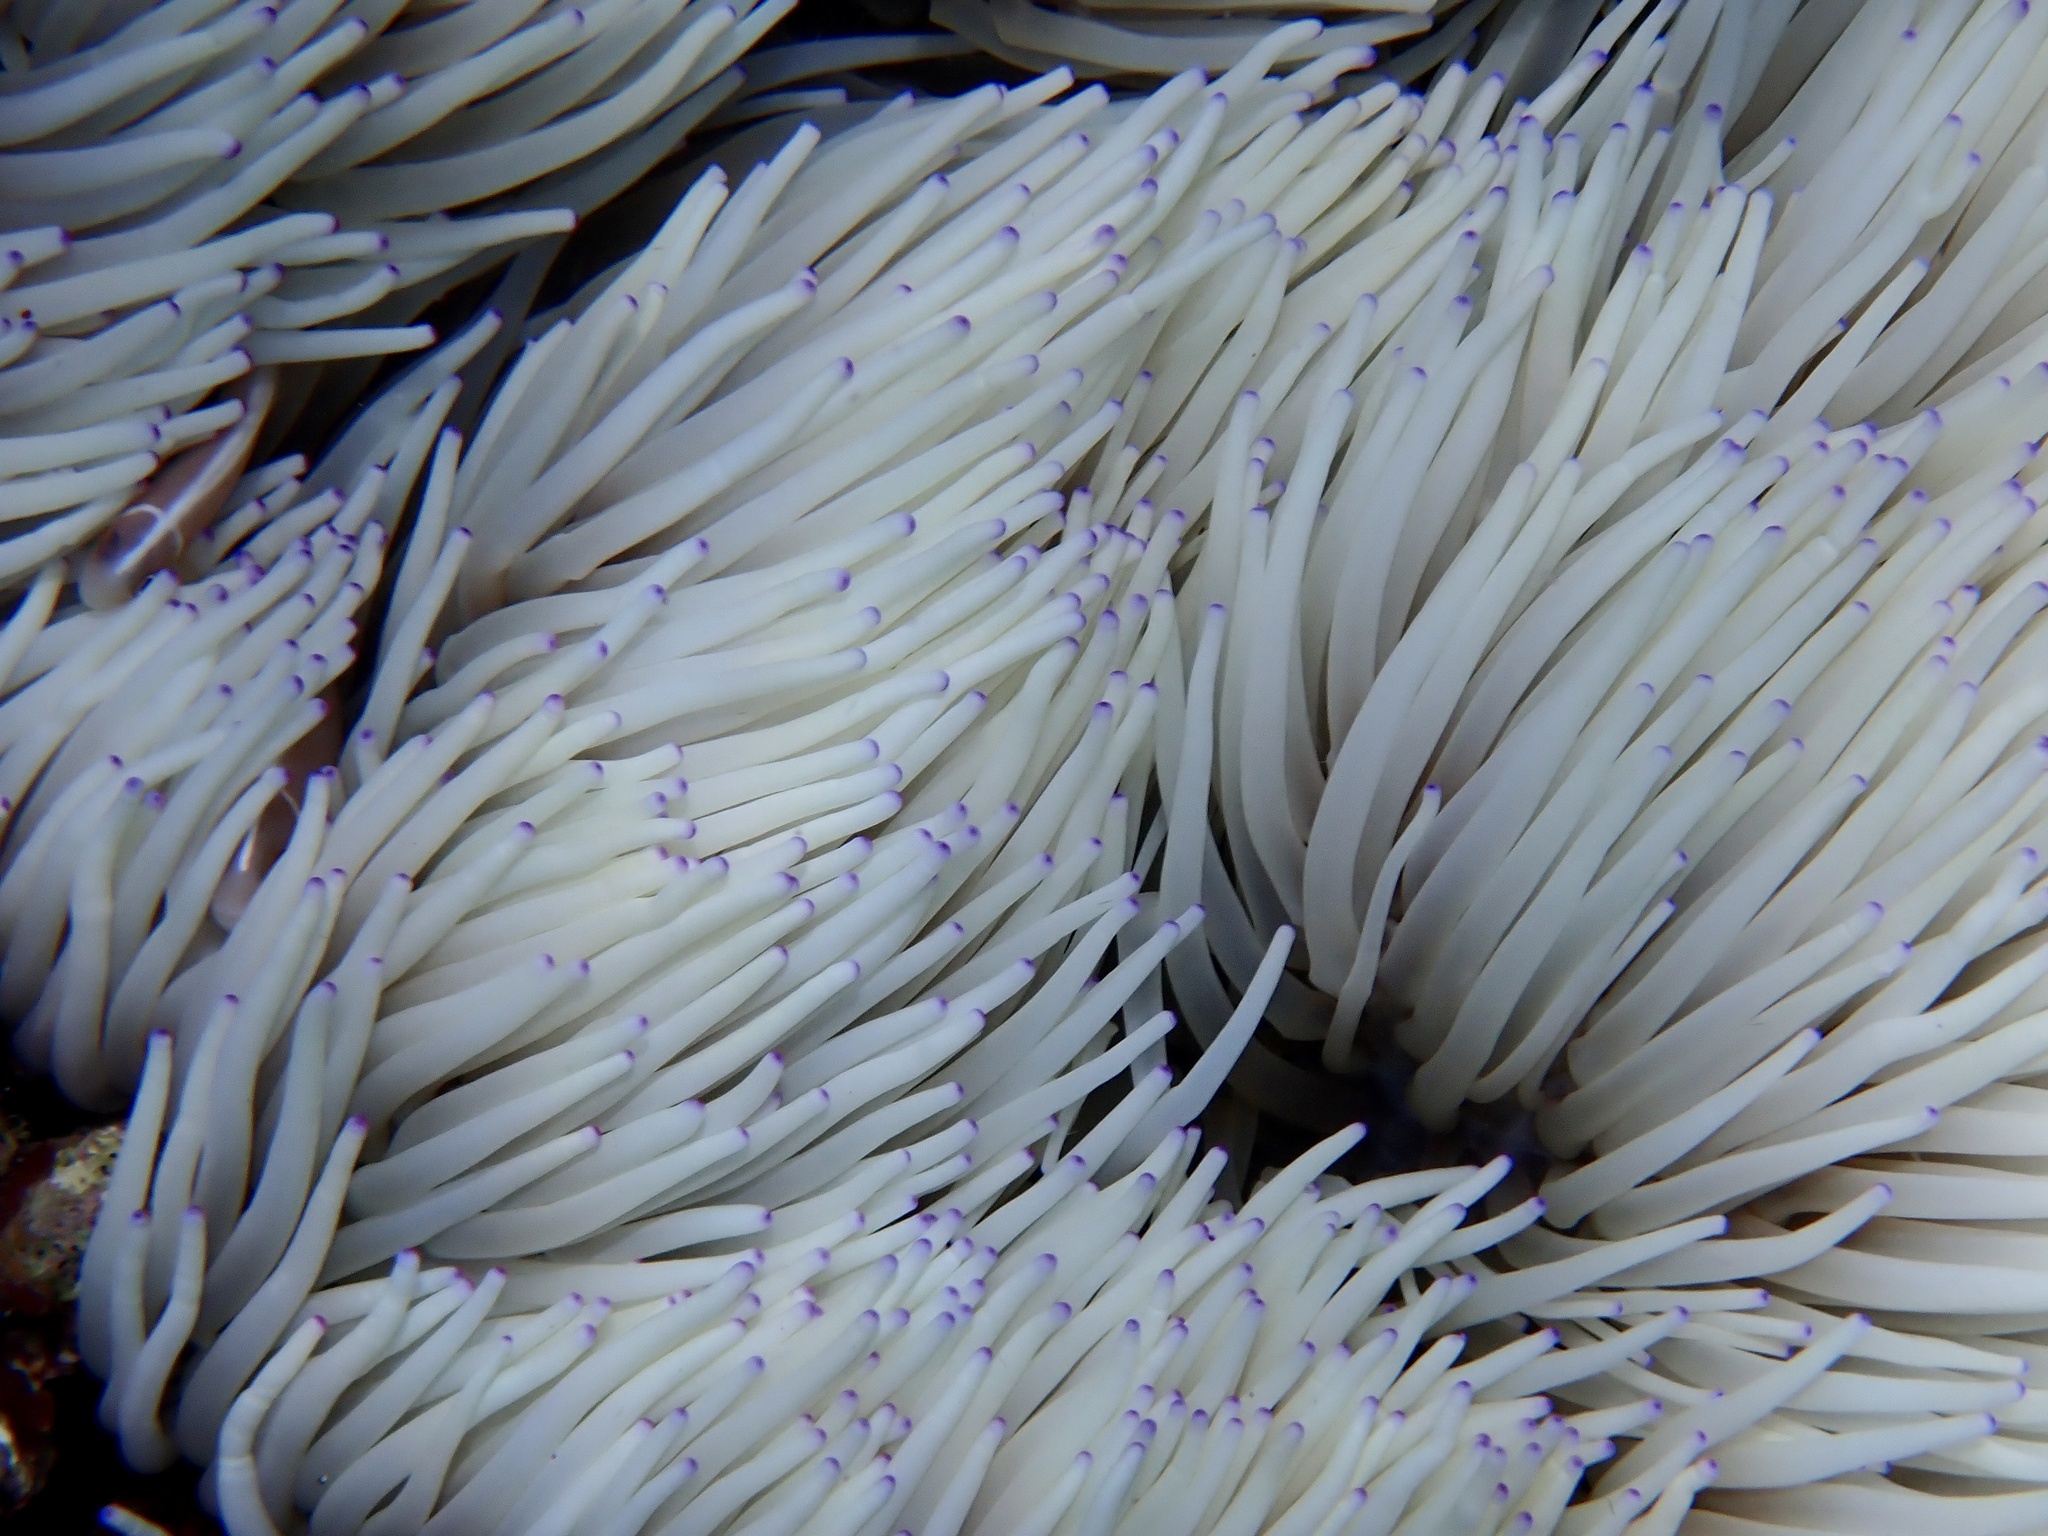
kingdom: Animalia
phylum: Cnidaria
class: Anthozoa
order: Actiniaria
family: Stichodactylidae
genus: Radianthus
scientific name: Radianthus crispa
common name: Leather anemone
